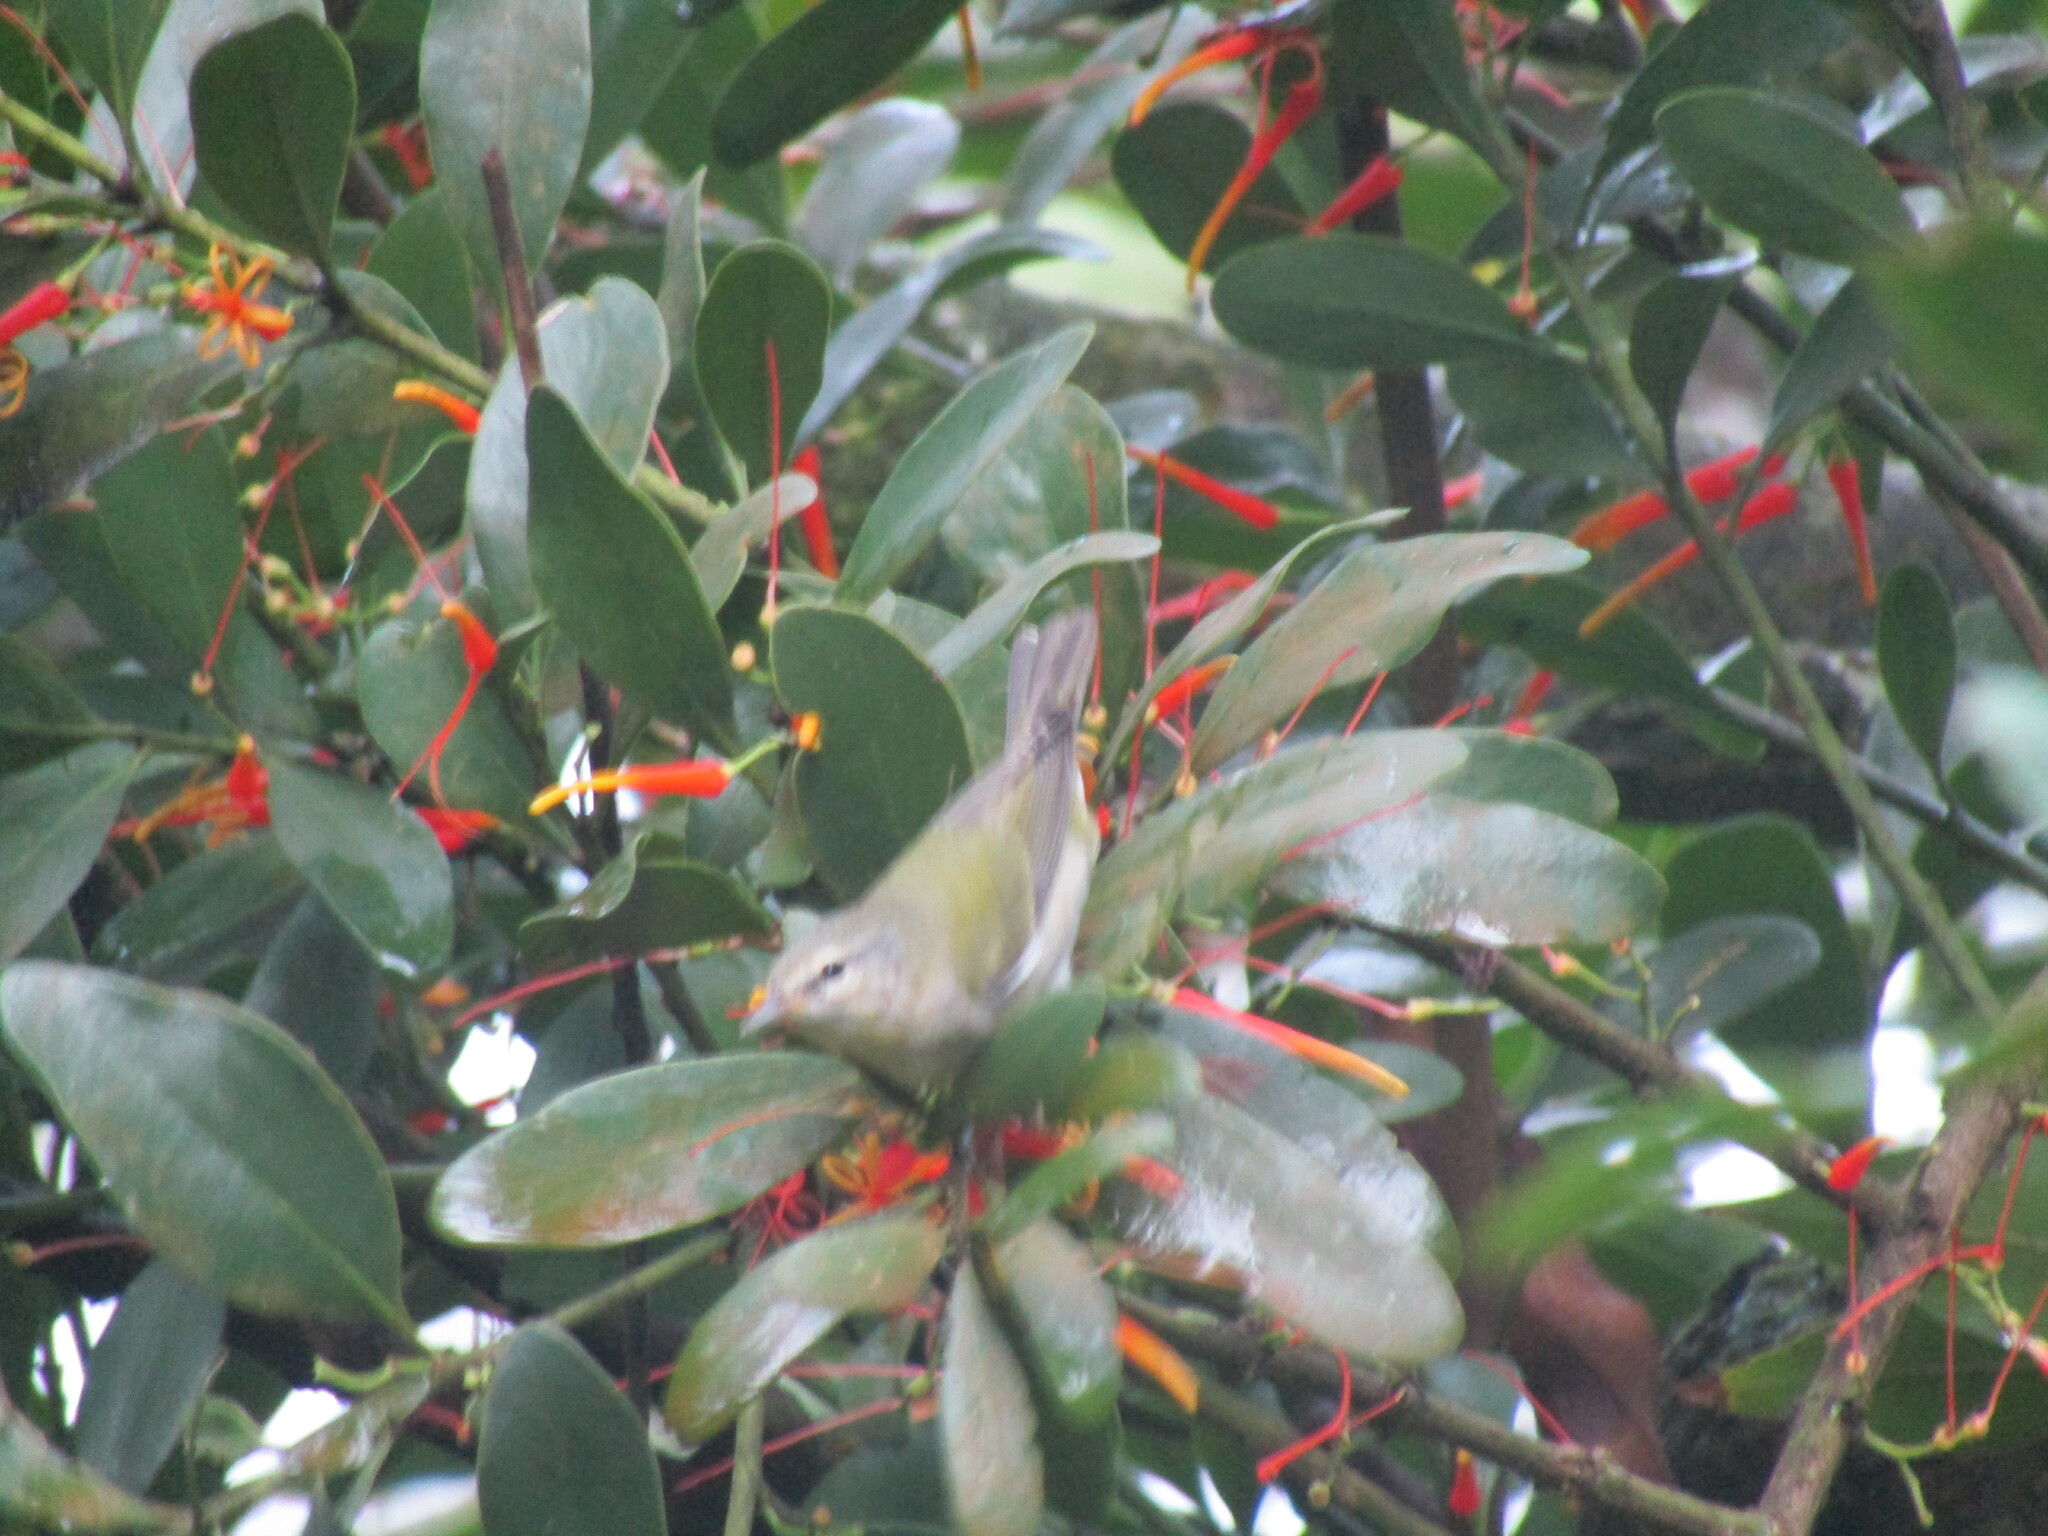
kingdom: Animalia
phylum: Chordata
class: Aves
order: Passeriformes
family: Parulidae
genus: Leiothlypis
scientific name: Leiothlypis peregrina
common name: Tennessee warbler
